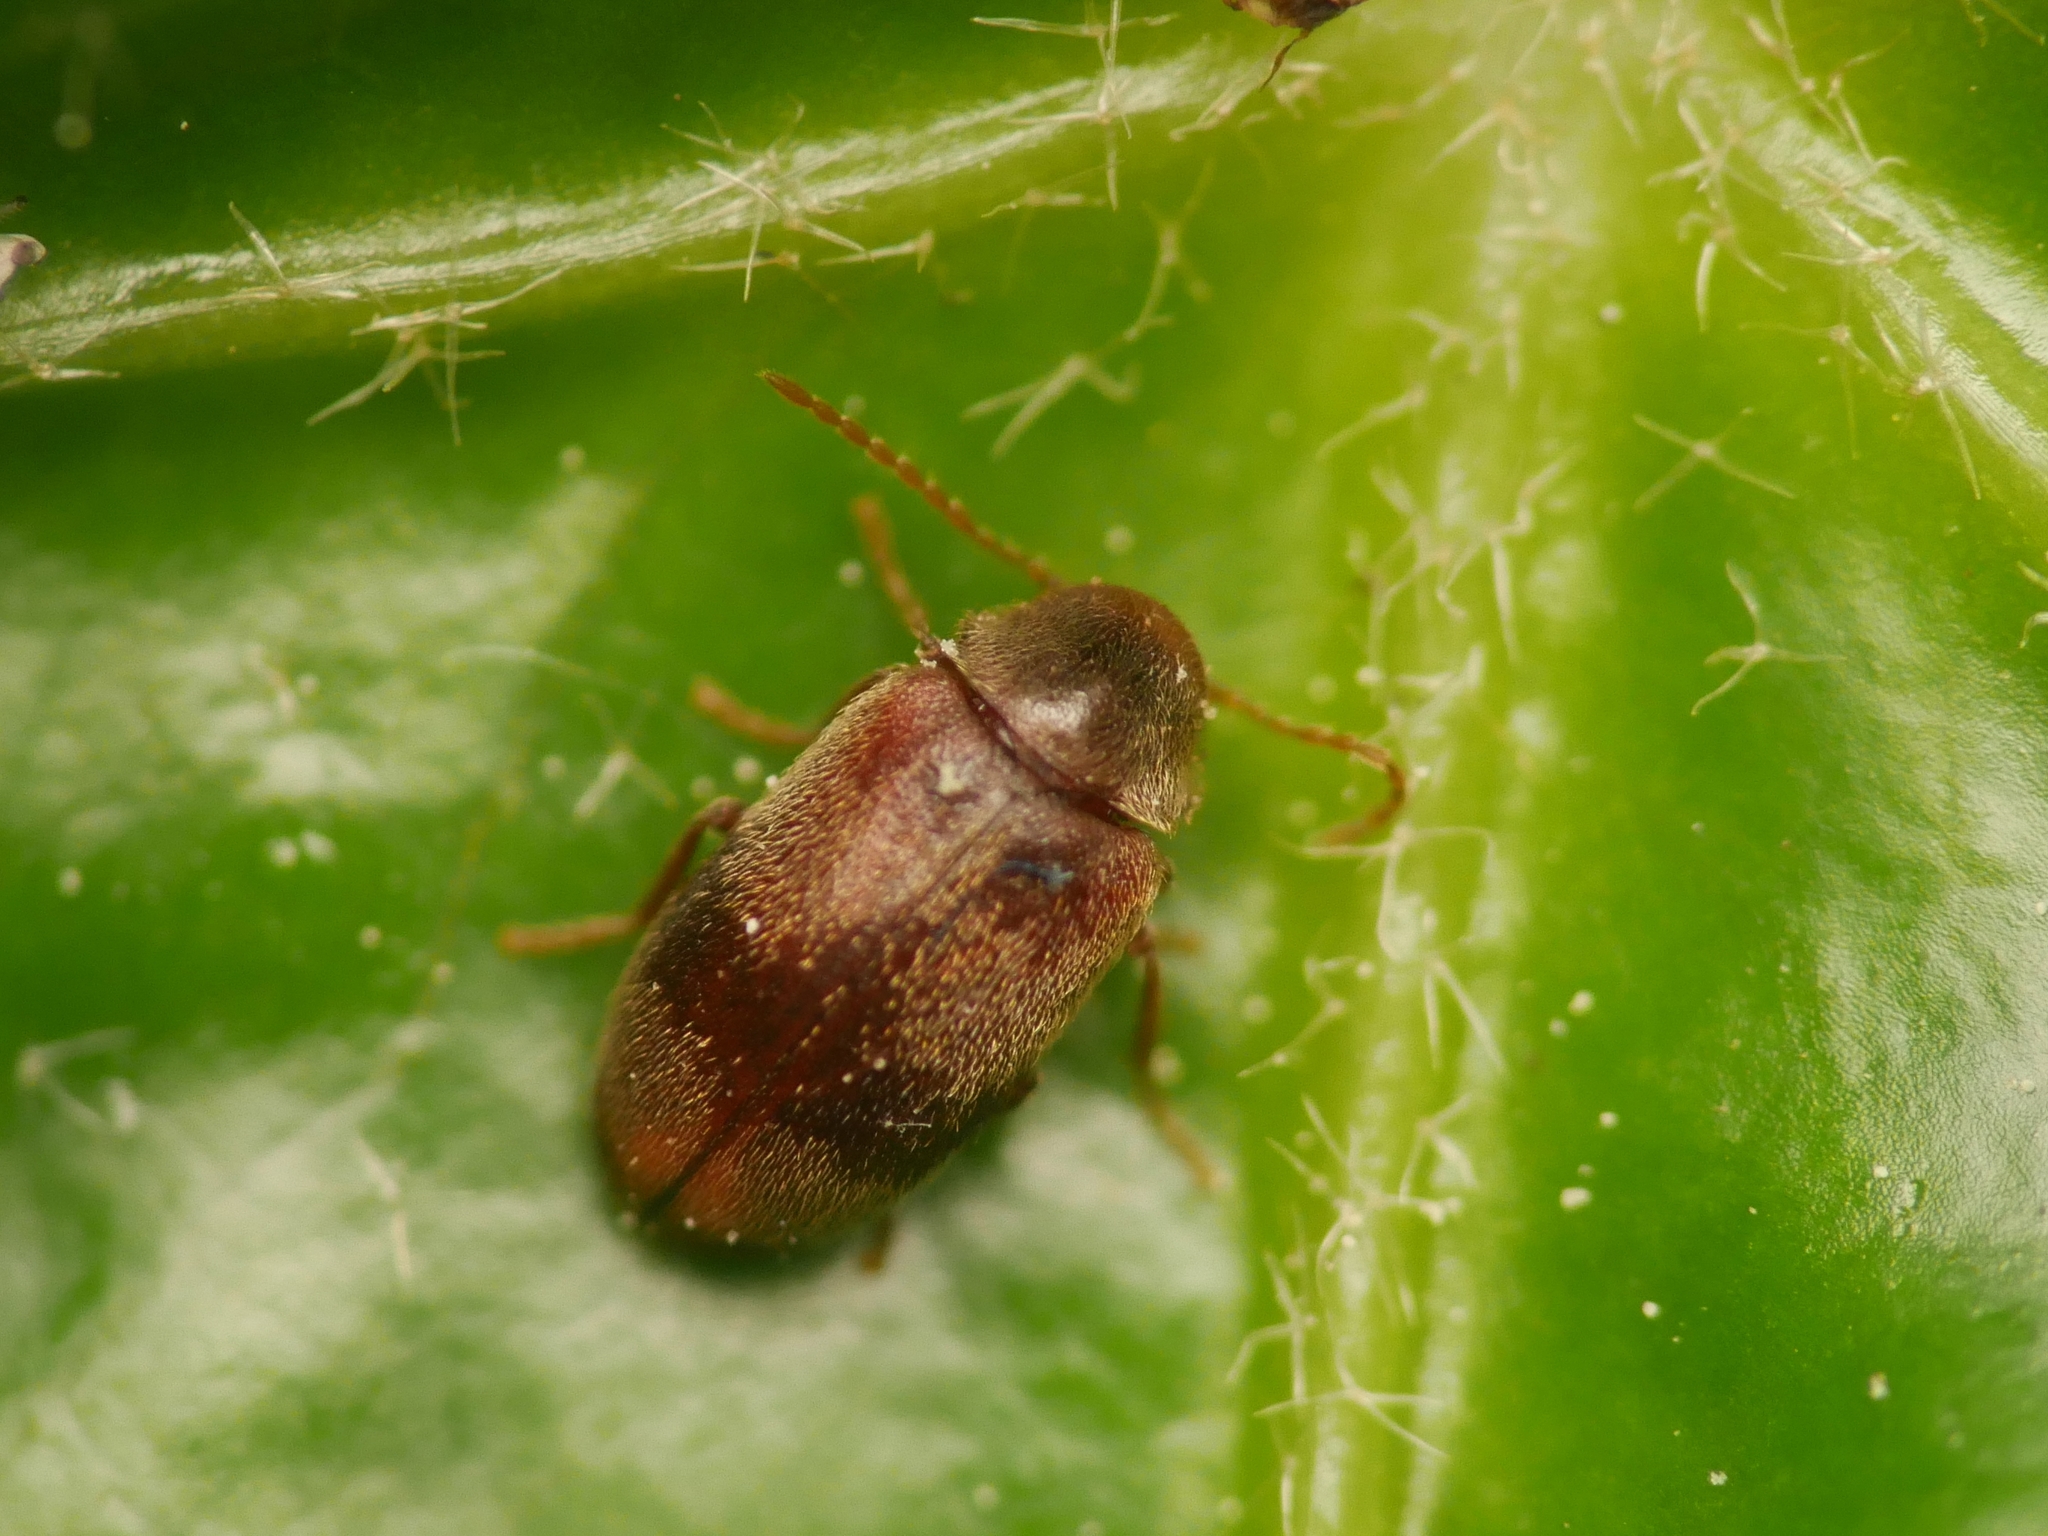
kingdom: Animalia
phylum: Arthropoda
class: Insecta
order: Coleoptera
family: Ptinidae
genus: Ochina
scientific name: Ochina ptinoides
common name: Ivy boring beetle
